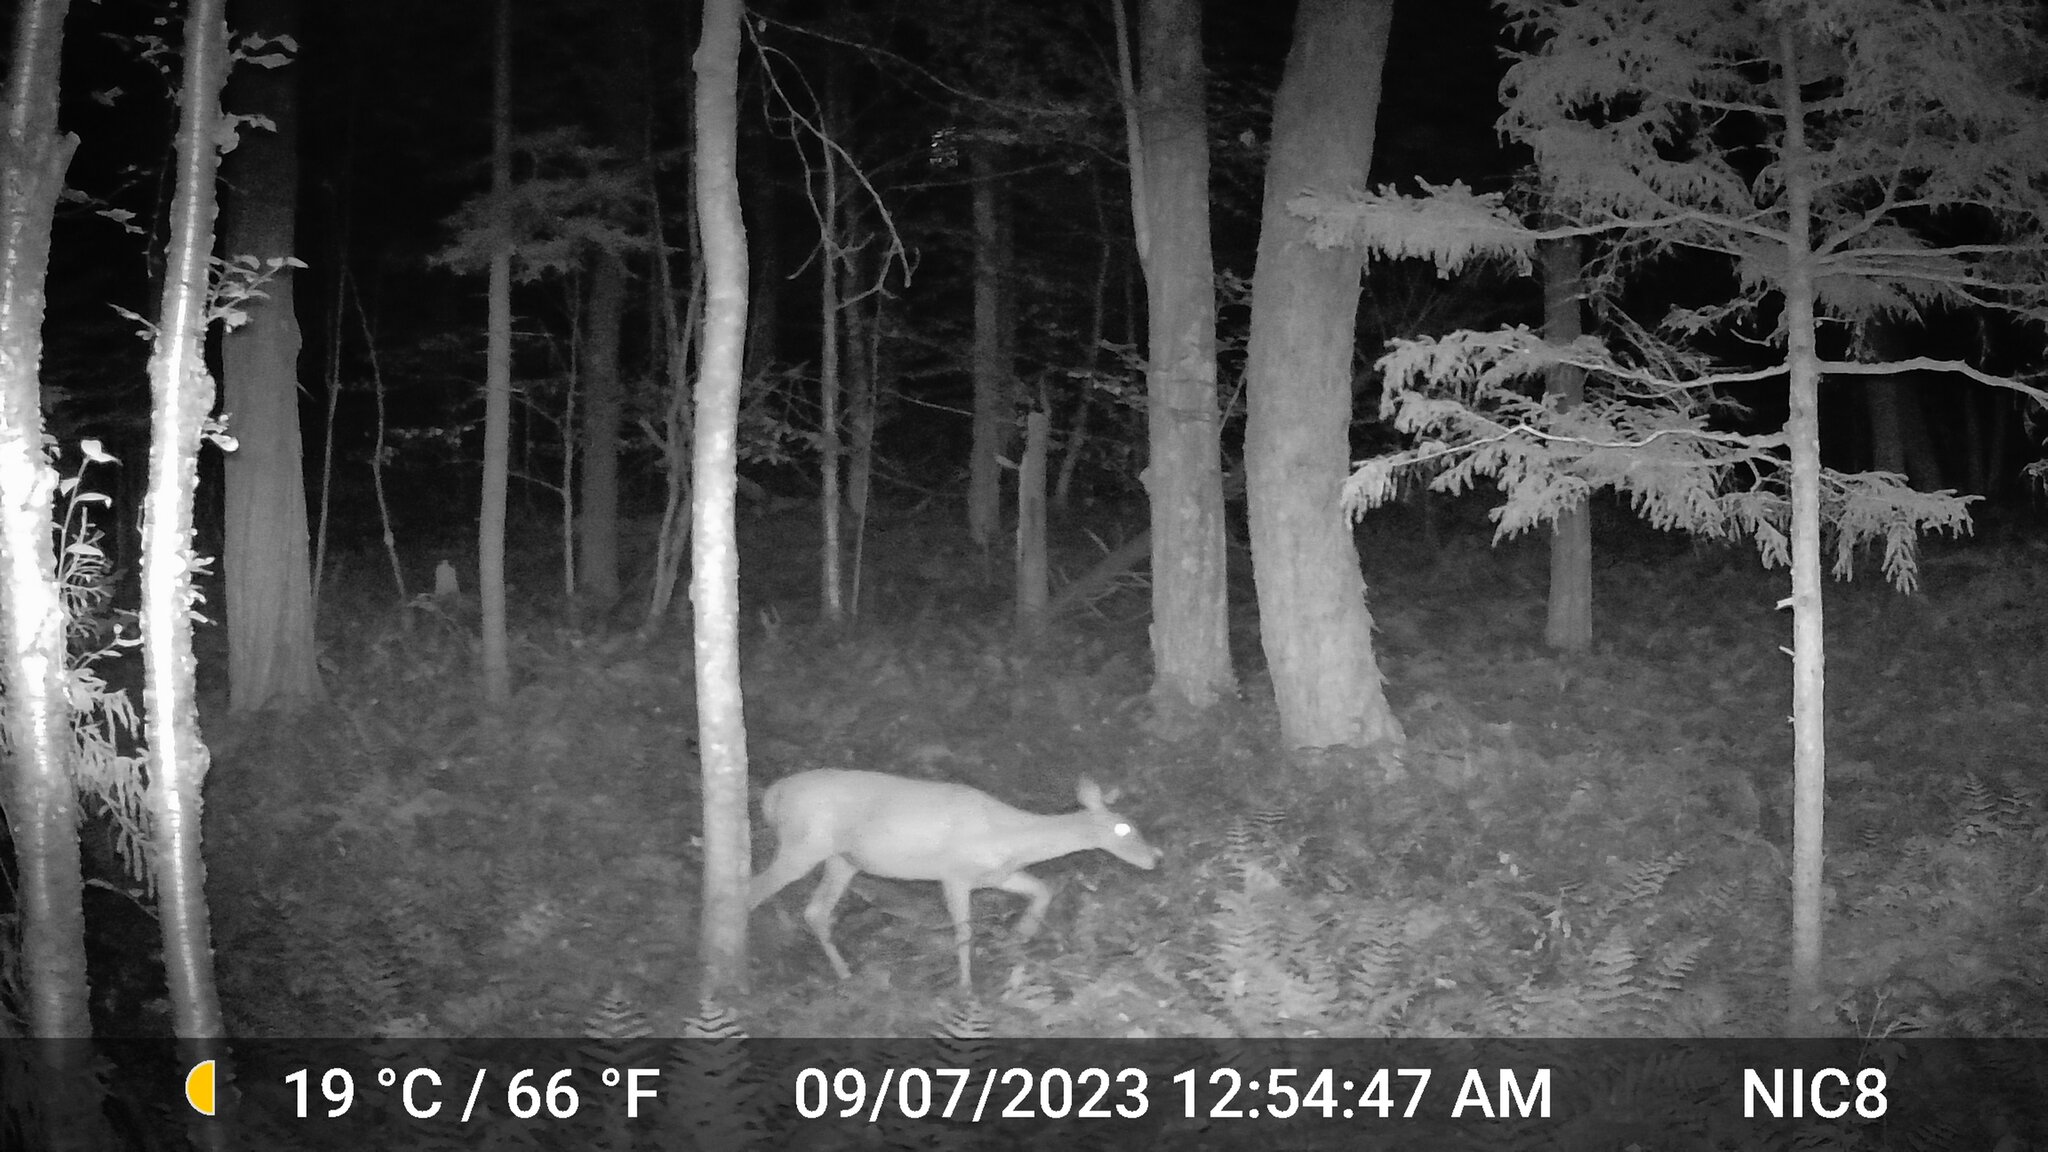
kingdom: Animalia
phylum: Chordata
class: Mammalia
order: Artiodactyla
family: Cervidae
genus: Odocoileus
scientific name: Odocoileus virginianus
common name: White-tailed deer
